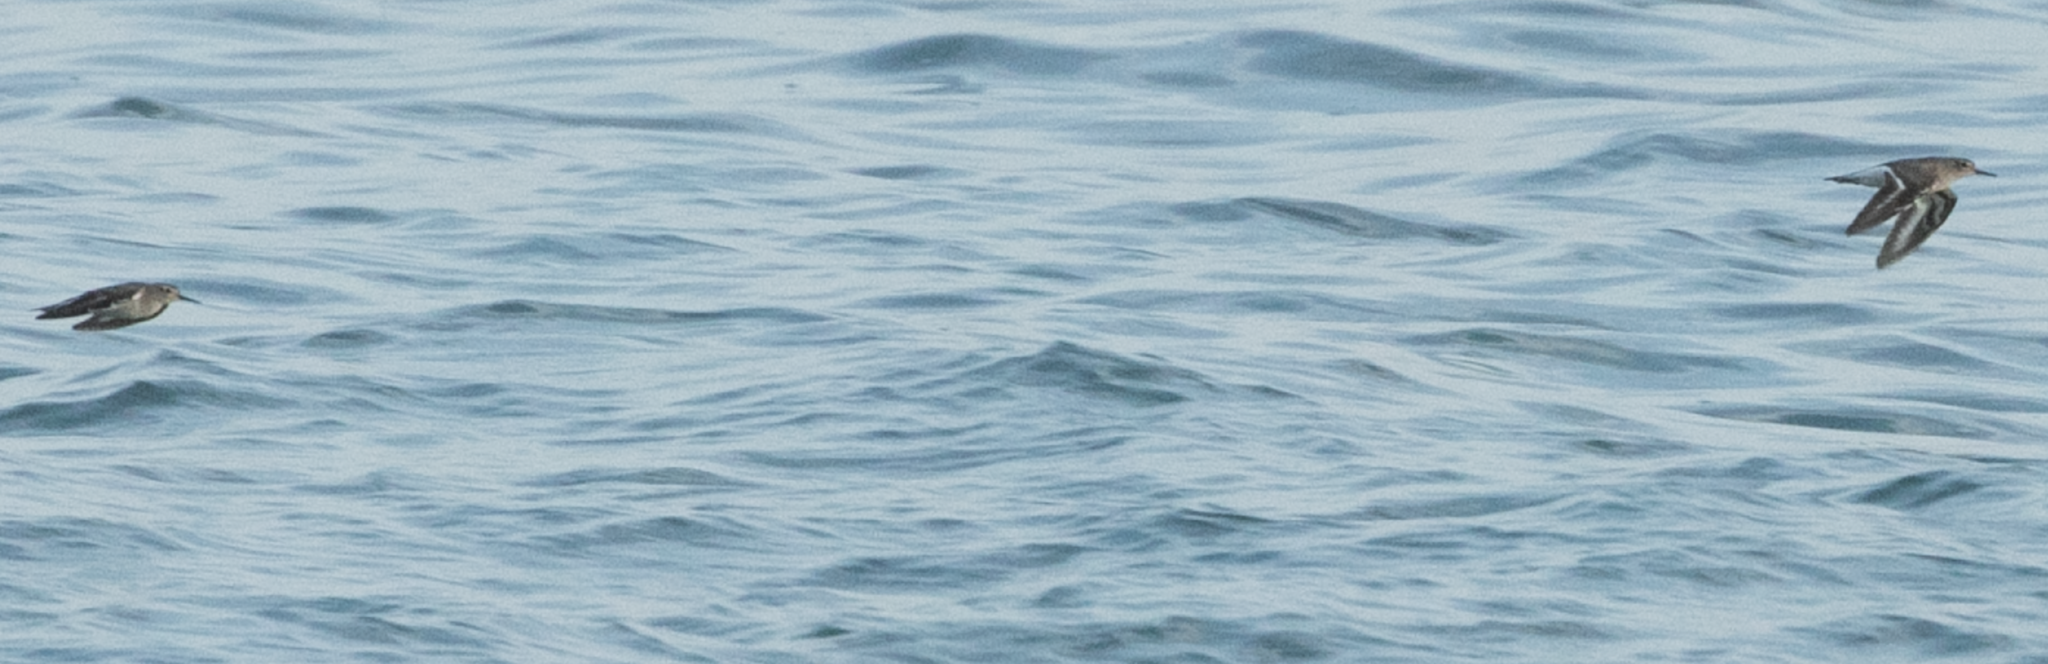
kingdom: Animalia
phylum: Chordata
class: Aves
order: Charadriiformes
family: Scolopacidae
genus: Actitis
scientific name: Actitis hypoleucos
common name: Common sandpiper
